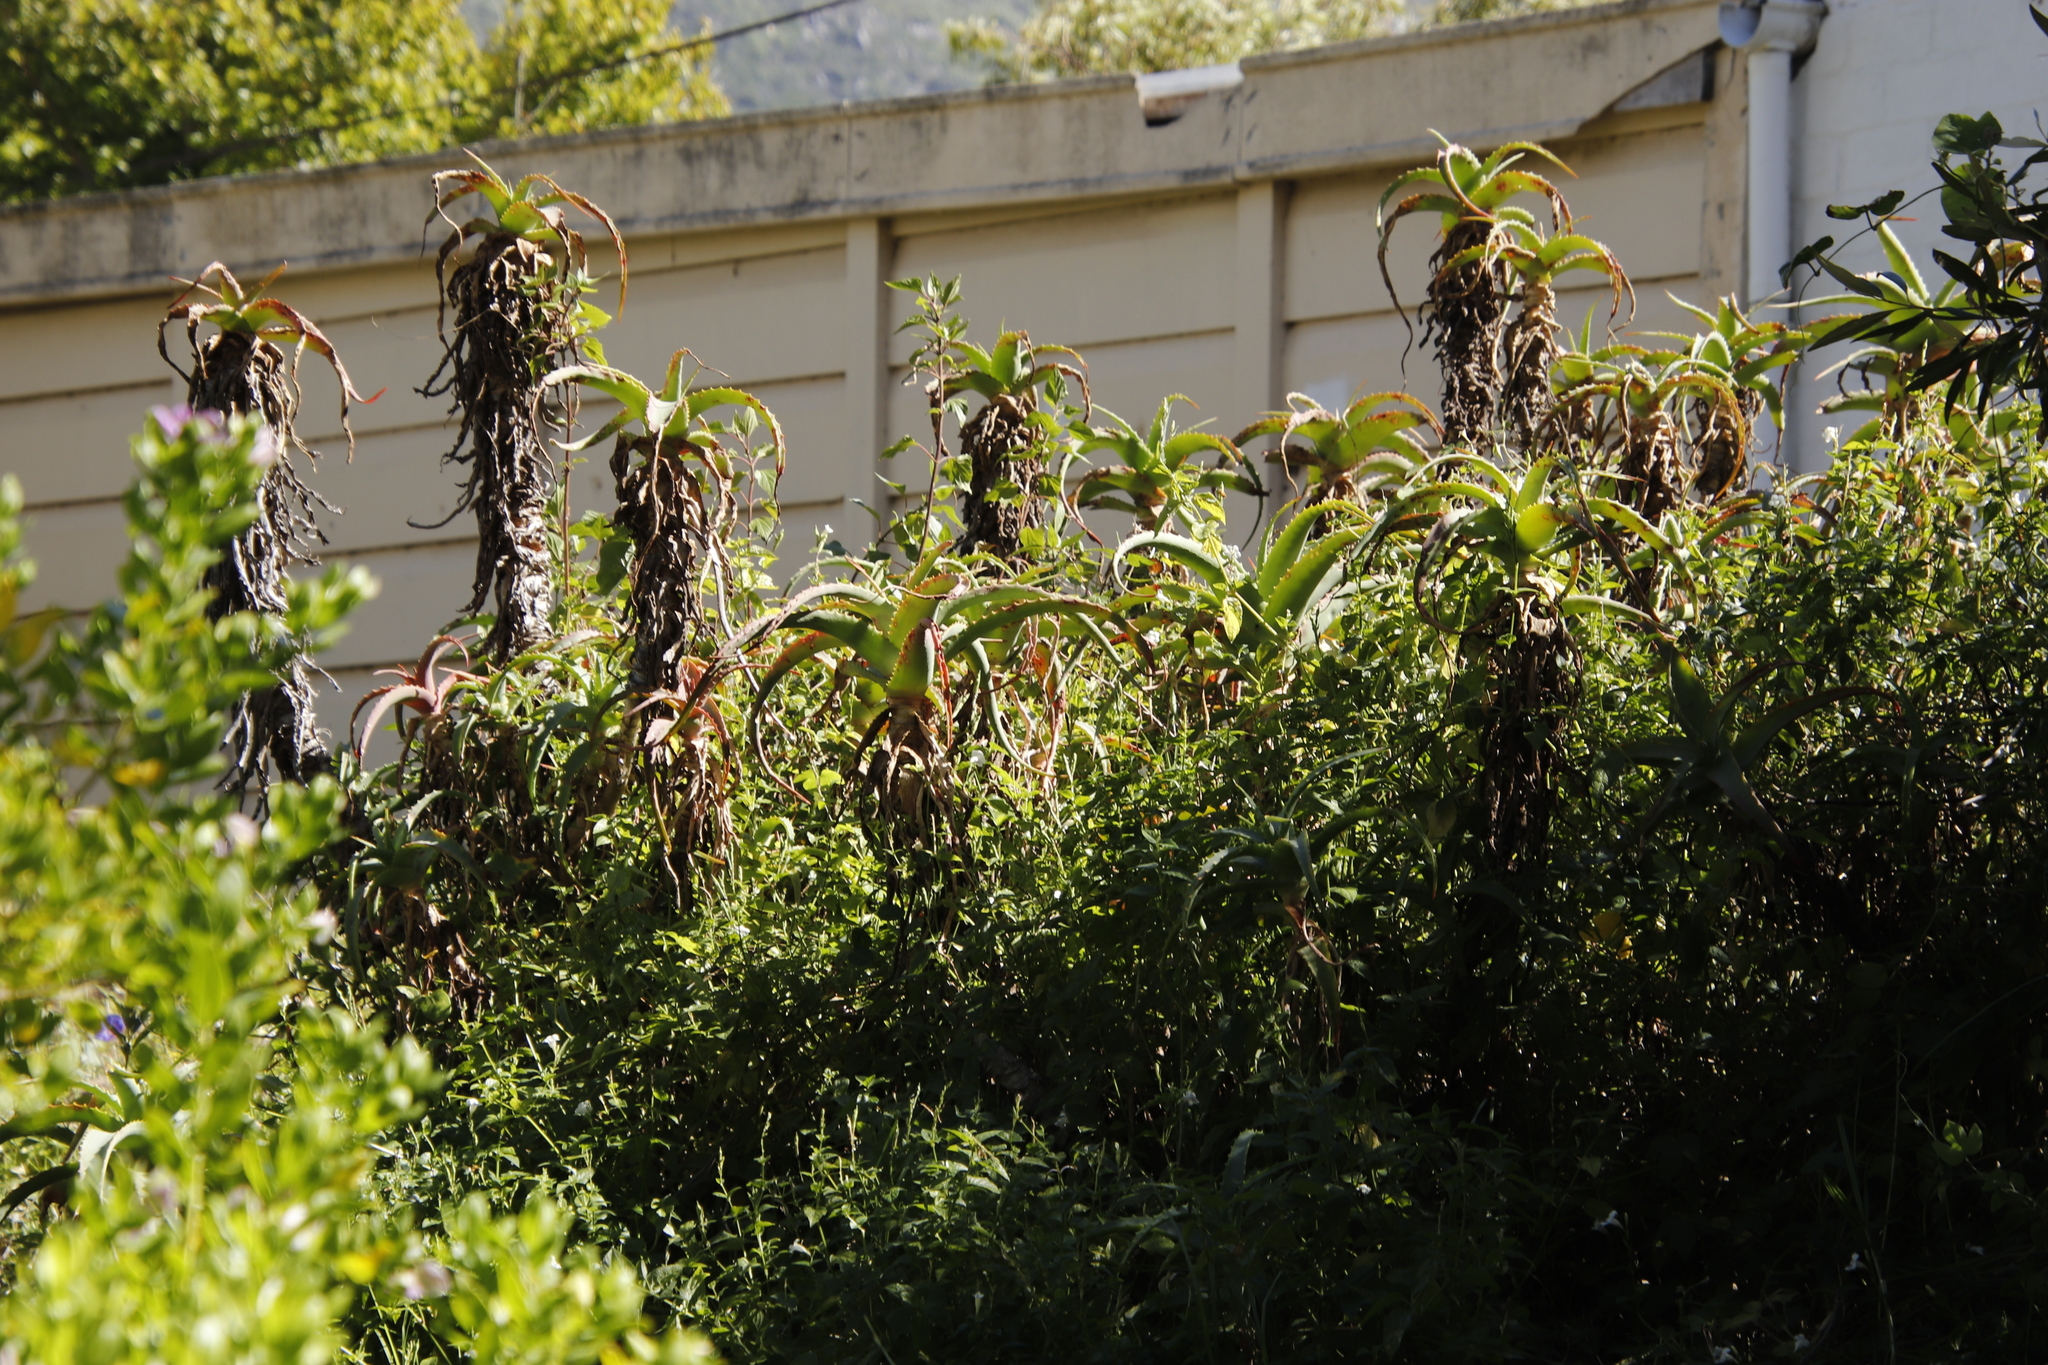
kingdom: Plantae
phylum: Tracheophyta
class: Liliopsida
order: Asparagales
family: Asphodelaceae
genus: Aloe
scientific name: Aloe arborescens
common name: Candelabra aloe
